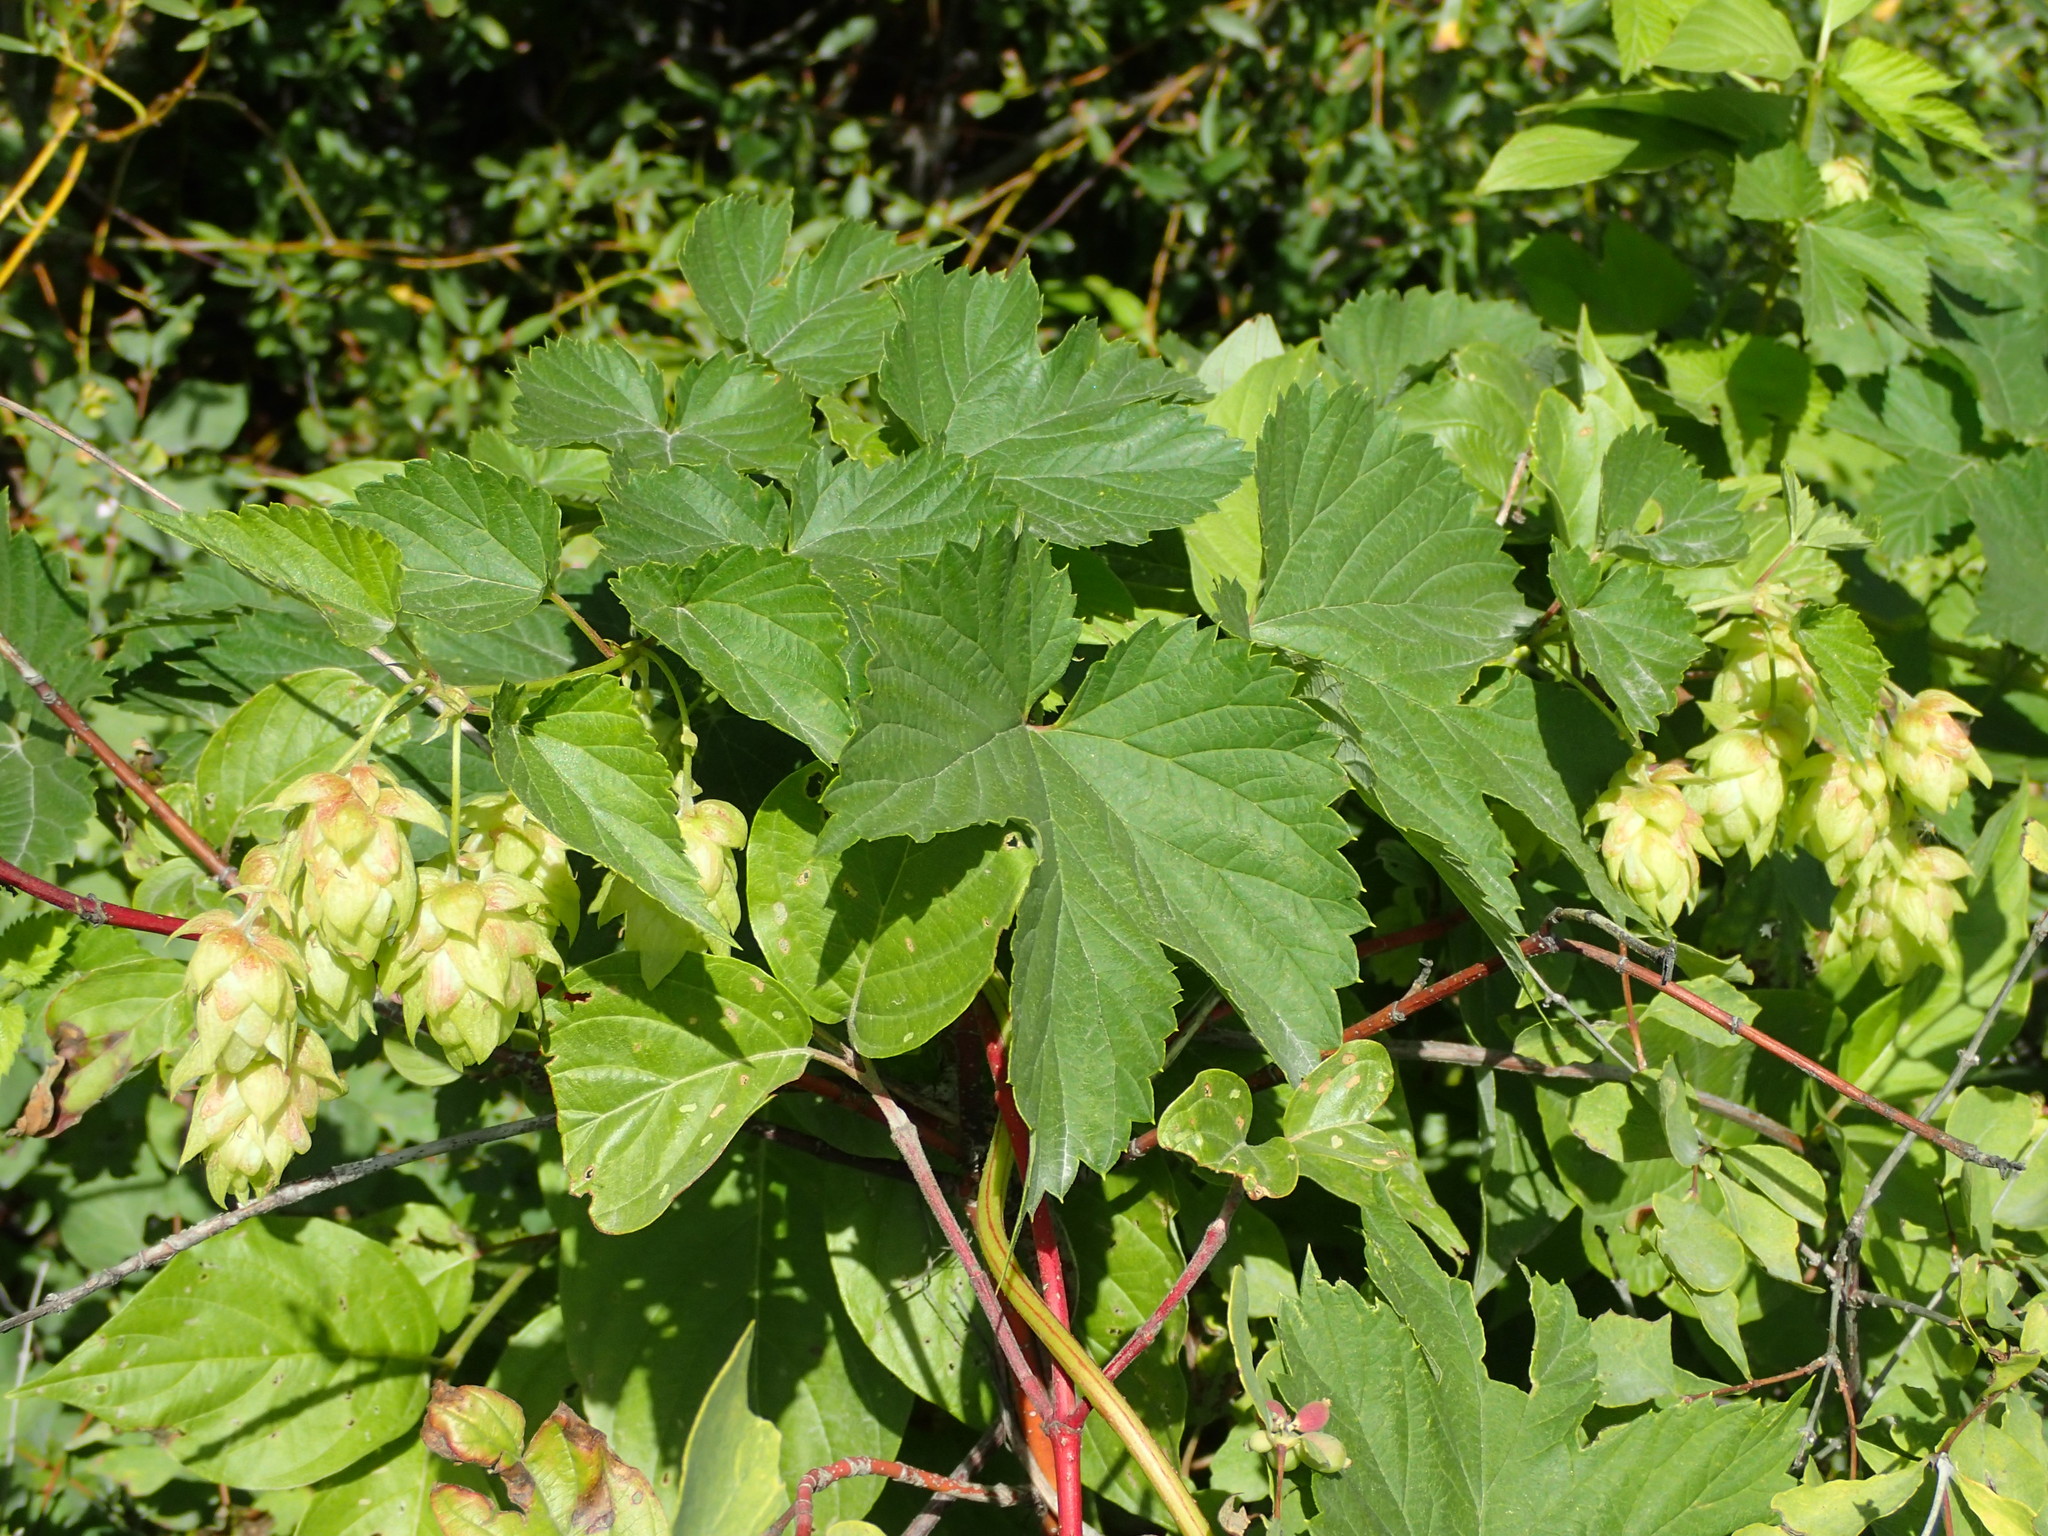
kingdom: Plantae
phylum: Tracheophyta
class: Magnoliopsida
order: Rosales
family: Cannabaceae
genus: Humulus
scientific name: Humulus lupulus
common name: Hop
